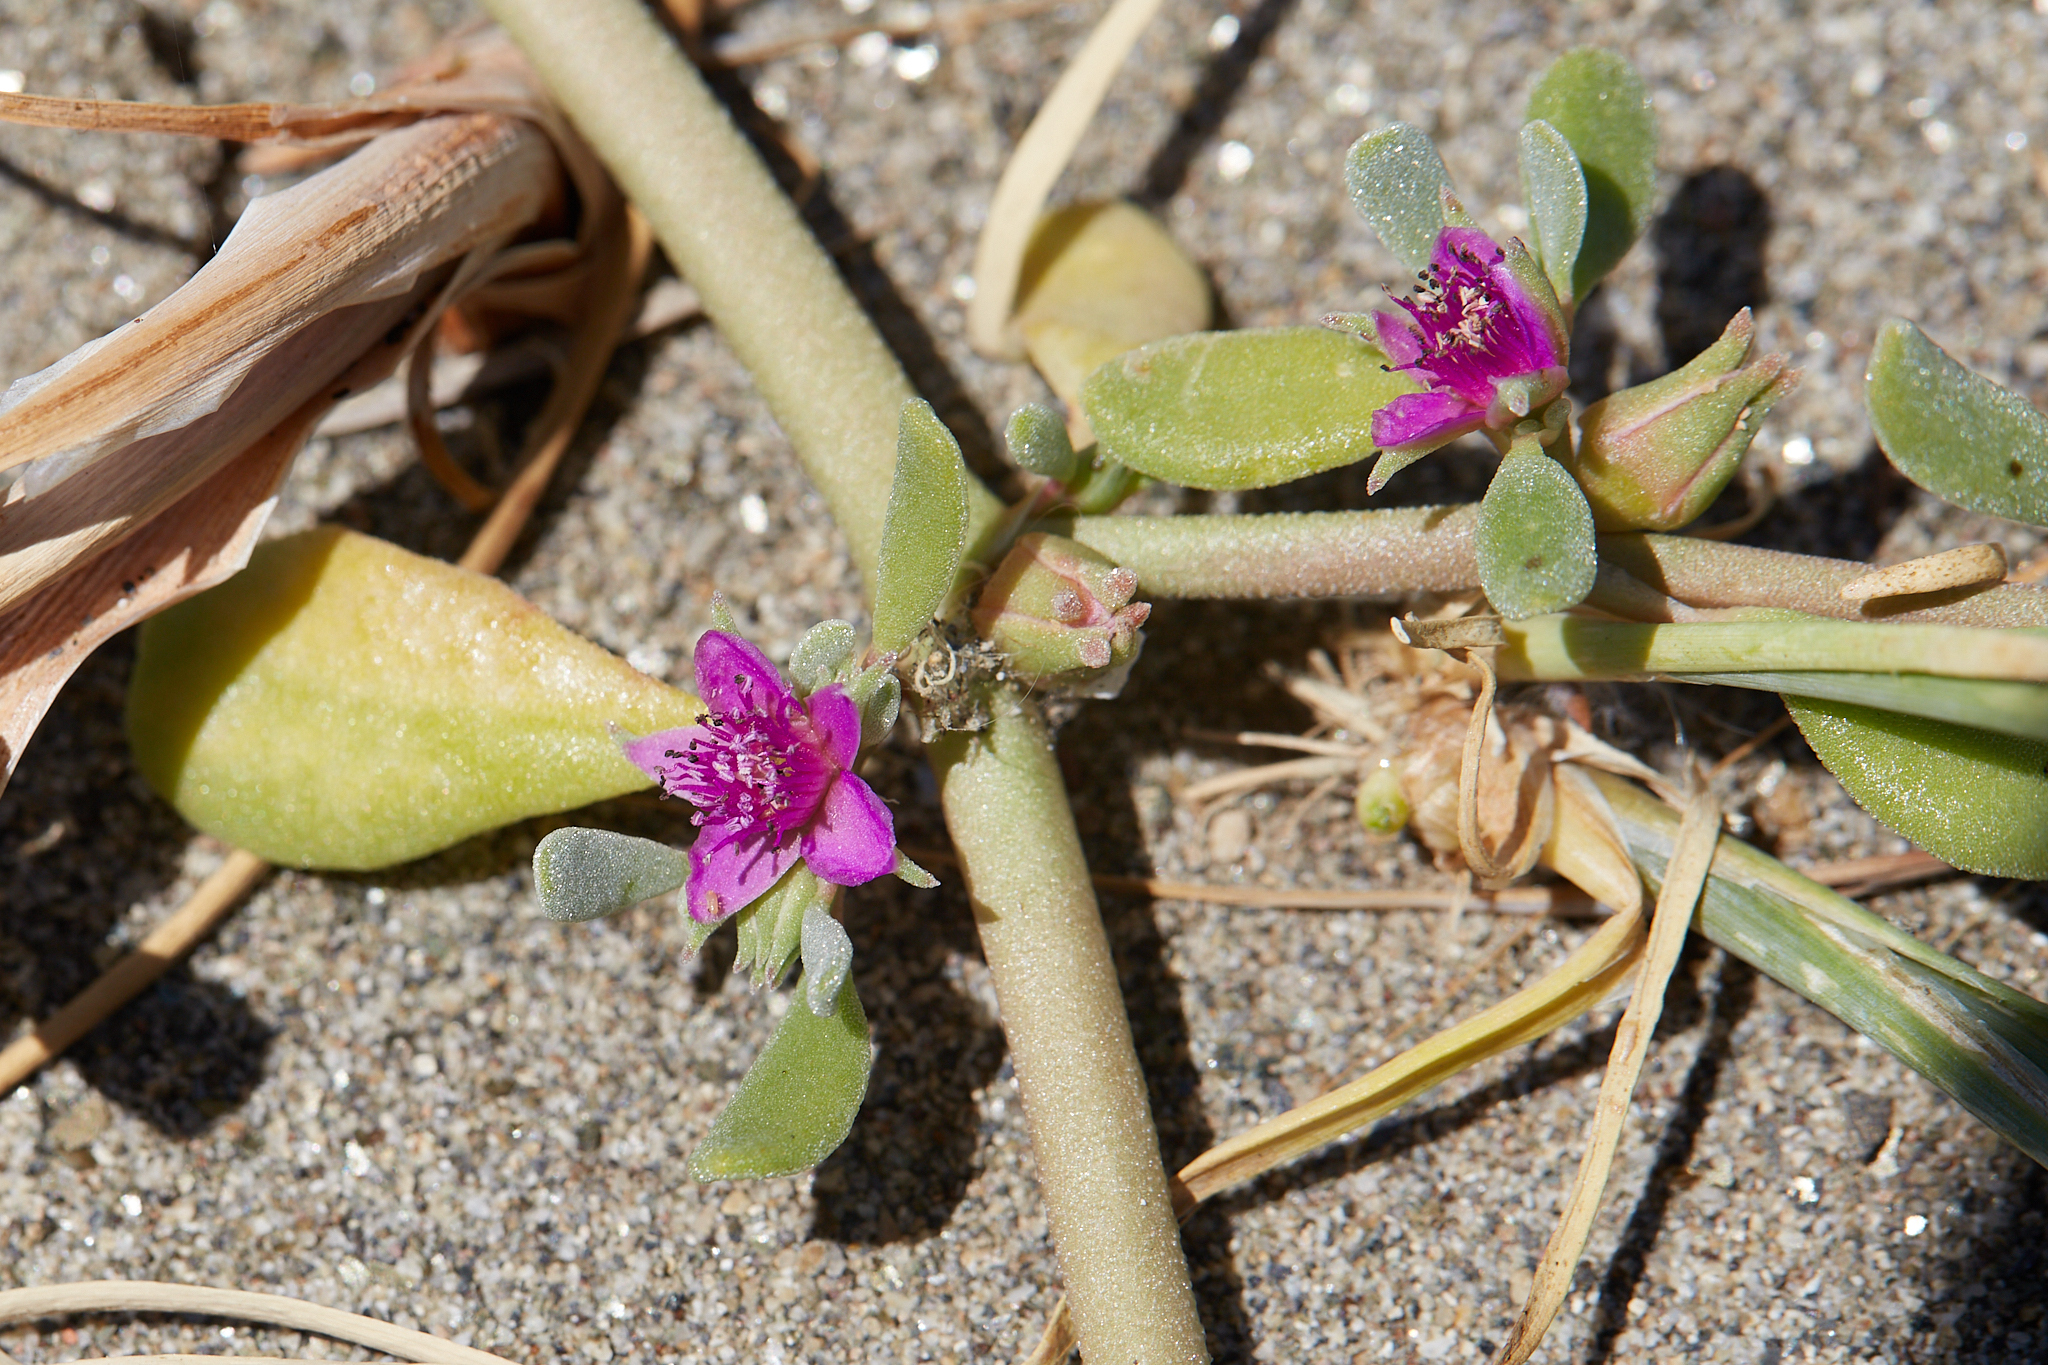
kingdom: Plantae
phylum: Tracheophyta
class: Magnoliopsida
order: Caryophyllales
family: Aizoaceae
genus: Sesuvium
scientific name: Sesuvium revolutifolium
